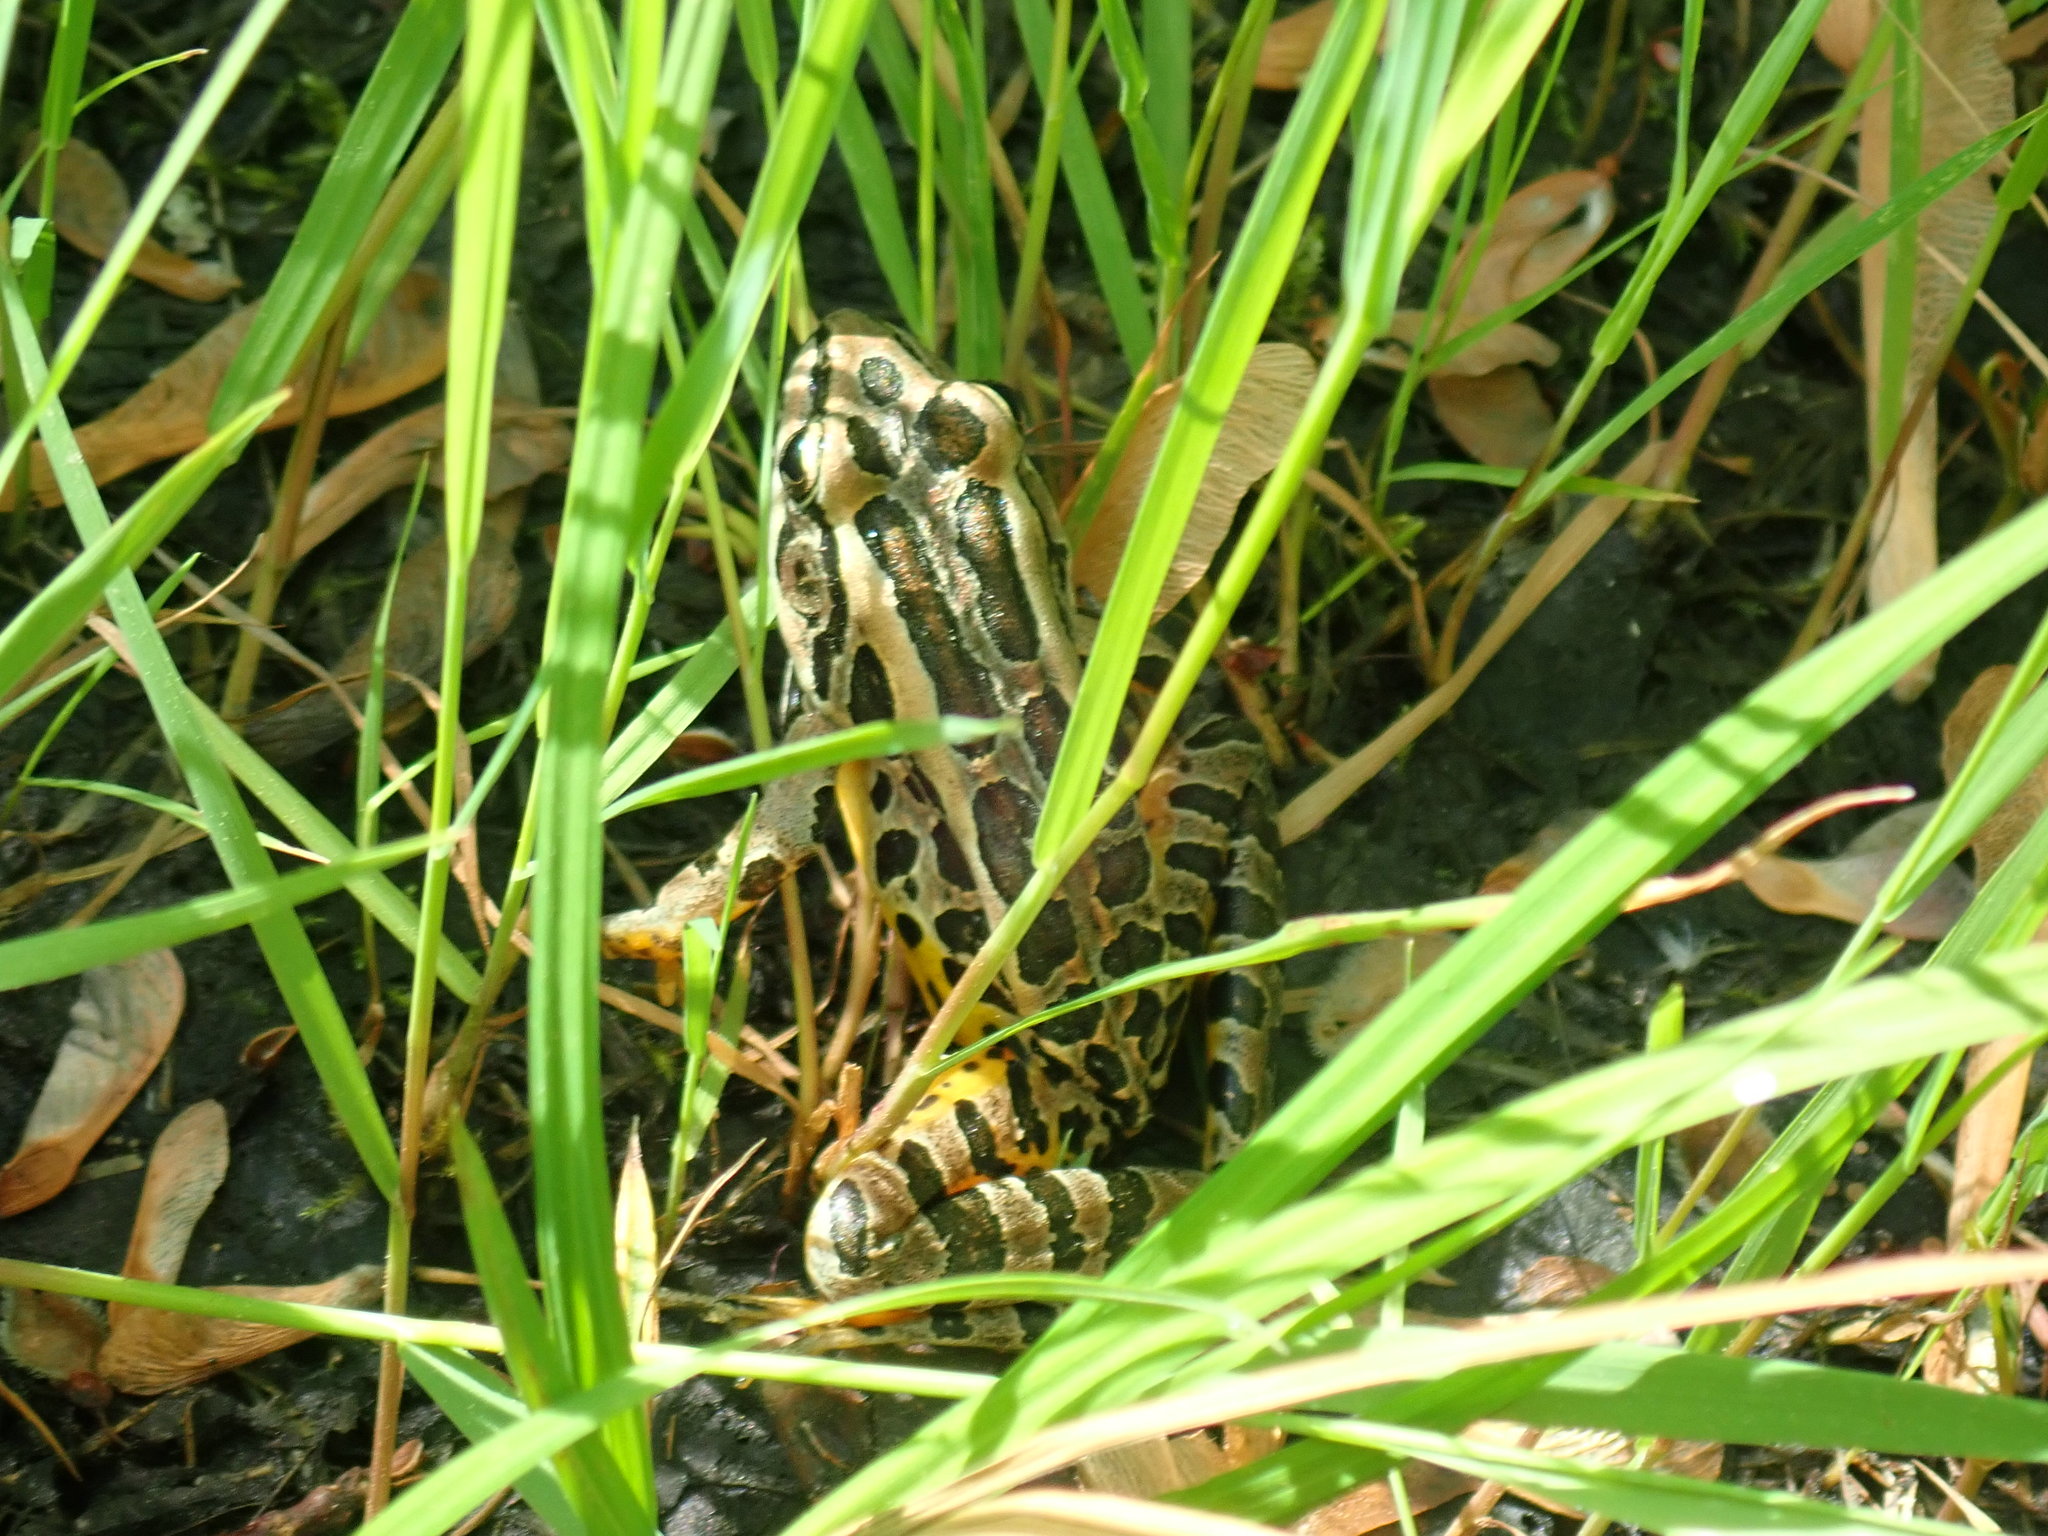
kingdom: Animalia
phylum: Chordata
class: Amphibia
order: Anura
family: Ranidae
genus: Lithobates
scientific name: Lithobates palustris
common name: Pickerel frog
